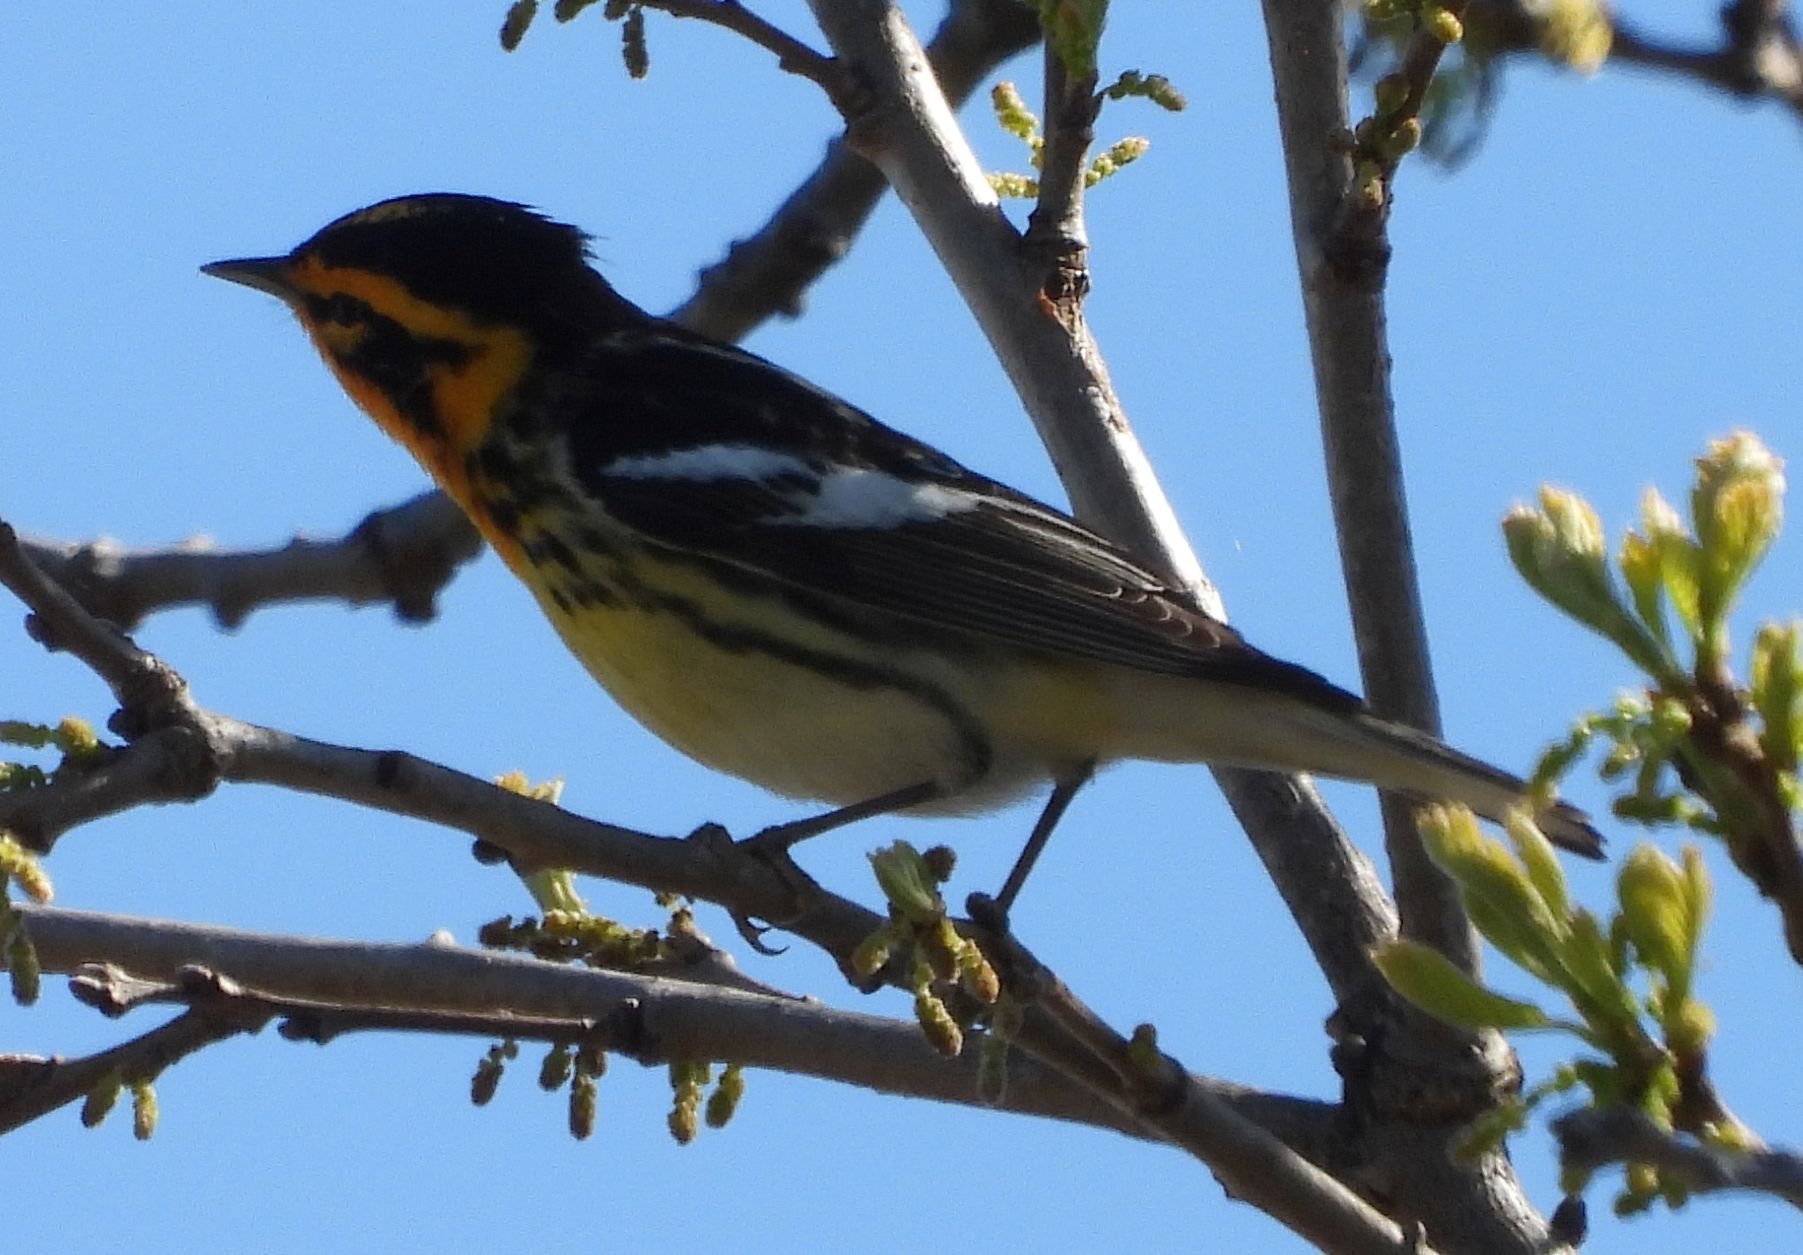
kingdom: Animalia
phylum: Chordata
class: Aves
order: Passeriformes
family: Parulidae
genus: Setophaga
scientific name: Setophaga fusca
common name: Blackburnian warbler
